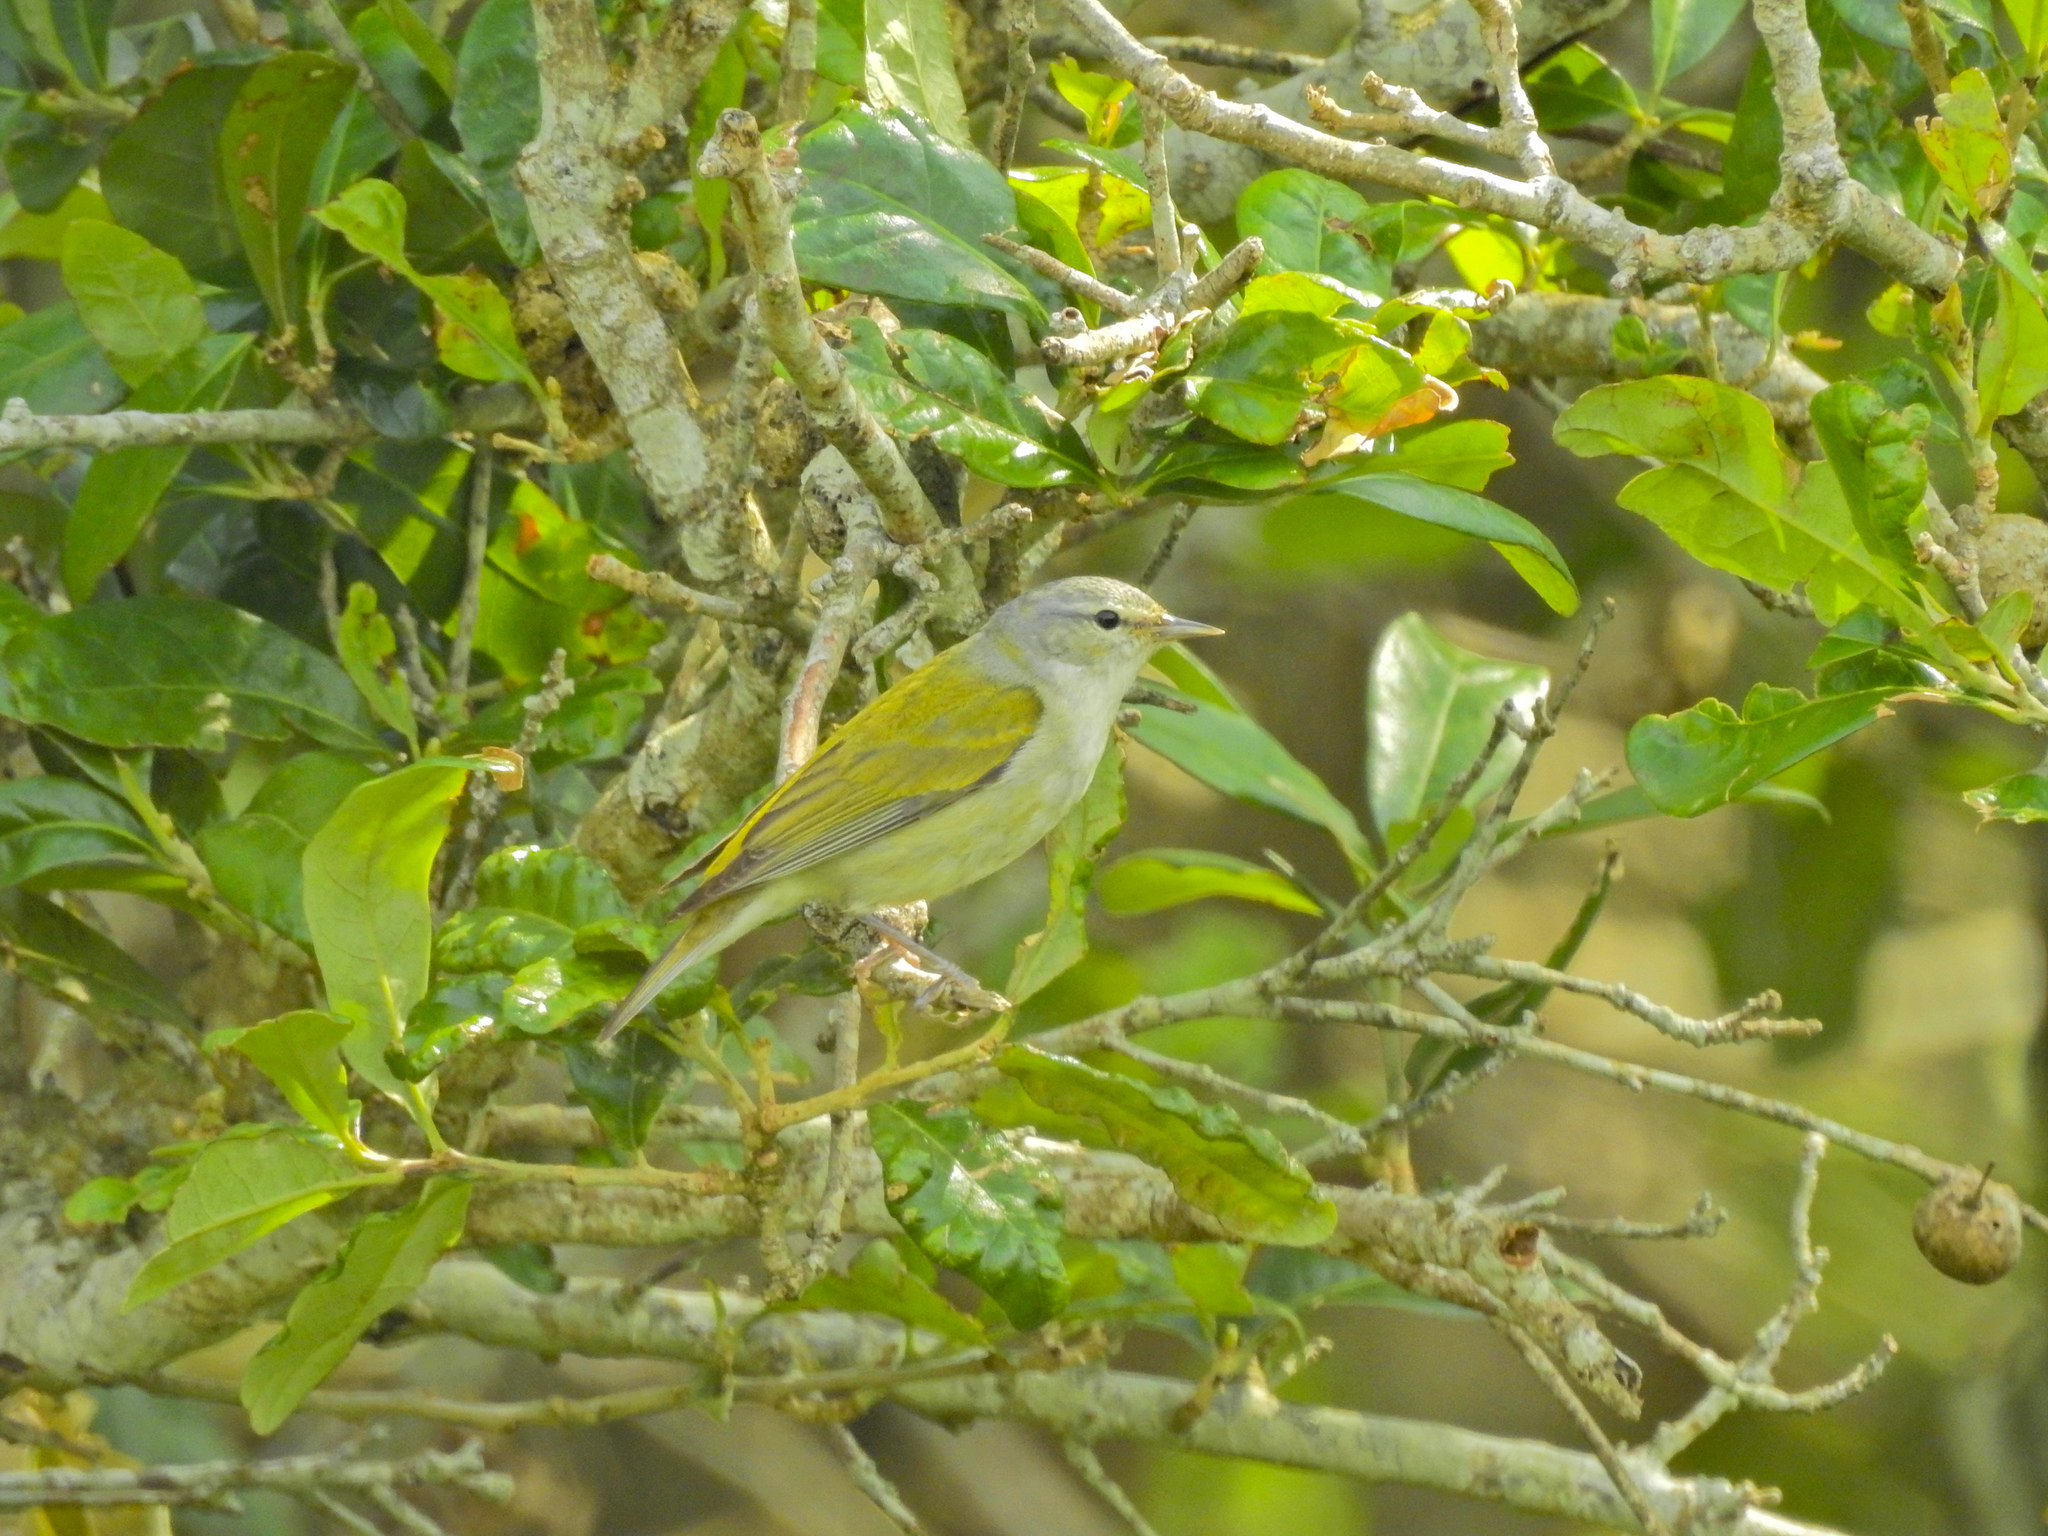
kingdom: Animalia
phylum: Chordata
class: Aves
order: Passeriformes
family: Parulidae
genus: Leiothlypis
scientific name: Leiothlypis peregrina
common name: Tennessee warbler
